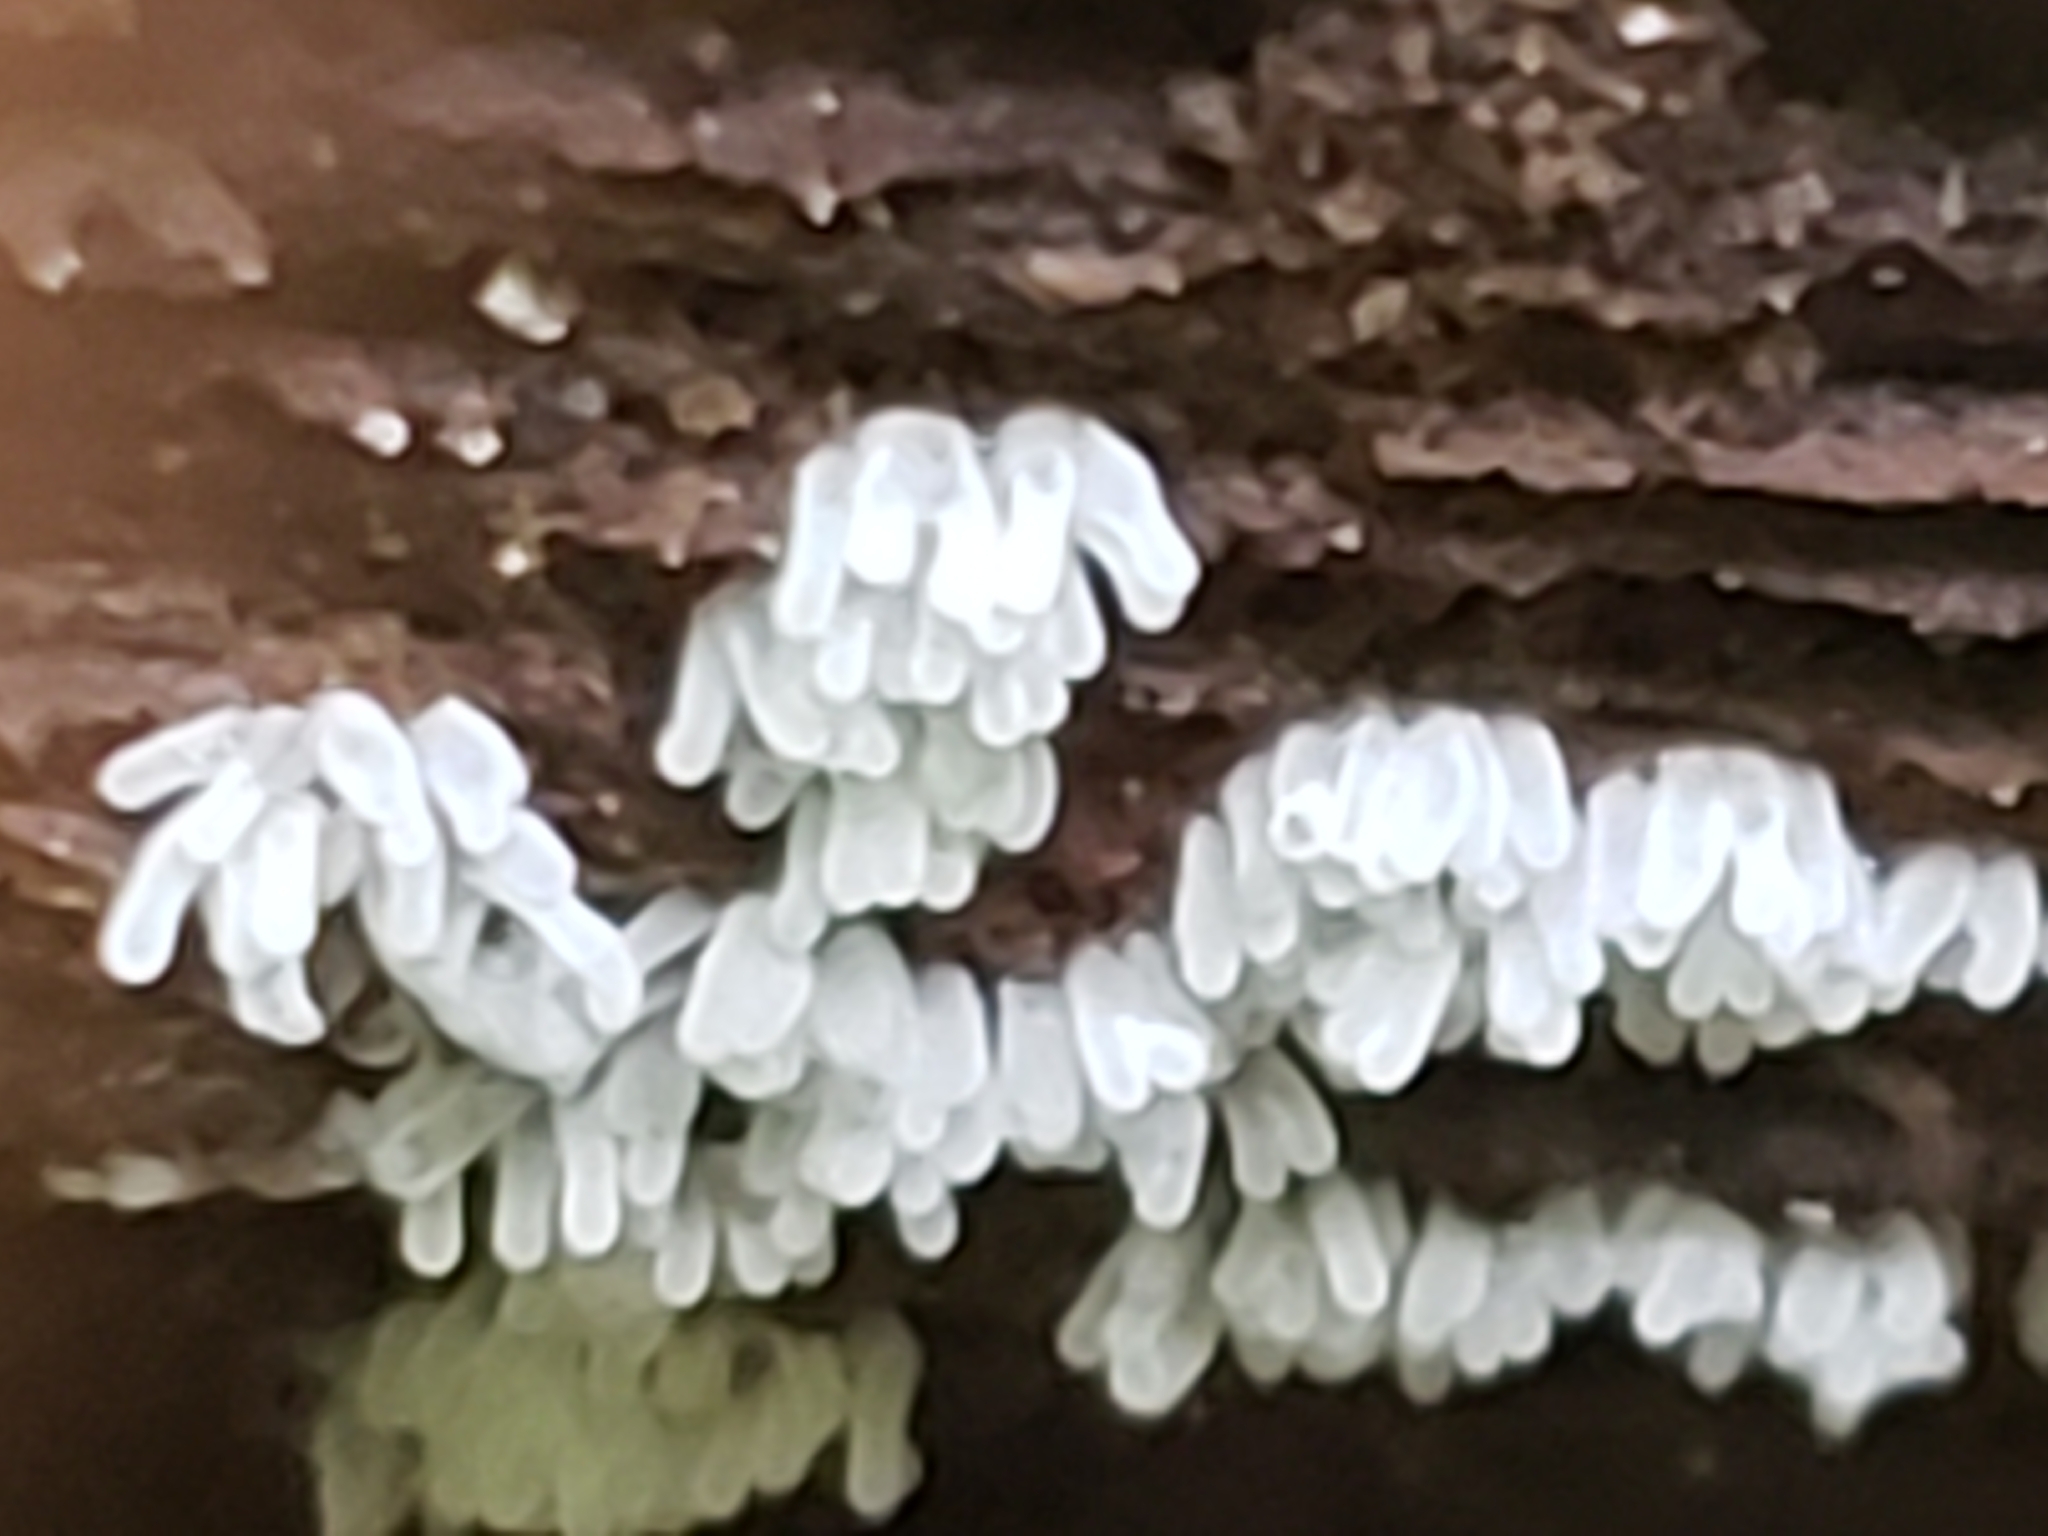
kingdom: Protozoa
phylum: Mycetozoa
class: Protosteliomycetes
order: Ceratiomyxales
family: Ceratiomyxaceae
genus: Ceratiomyxa
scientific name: Ceratiomyxa fruticulosa
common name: Honeycomb coral slime mold
